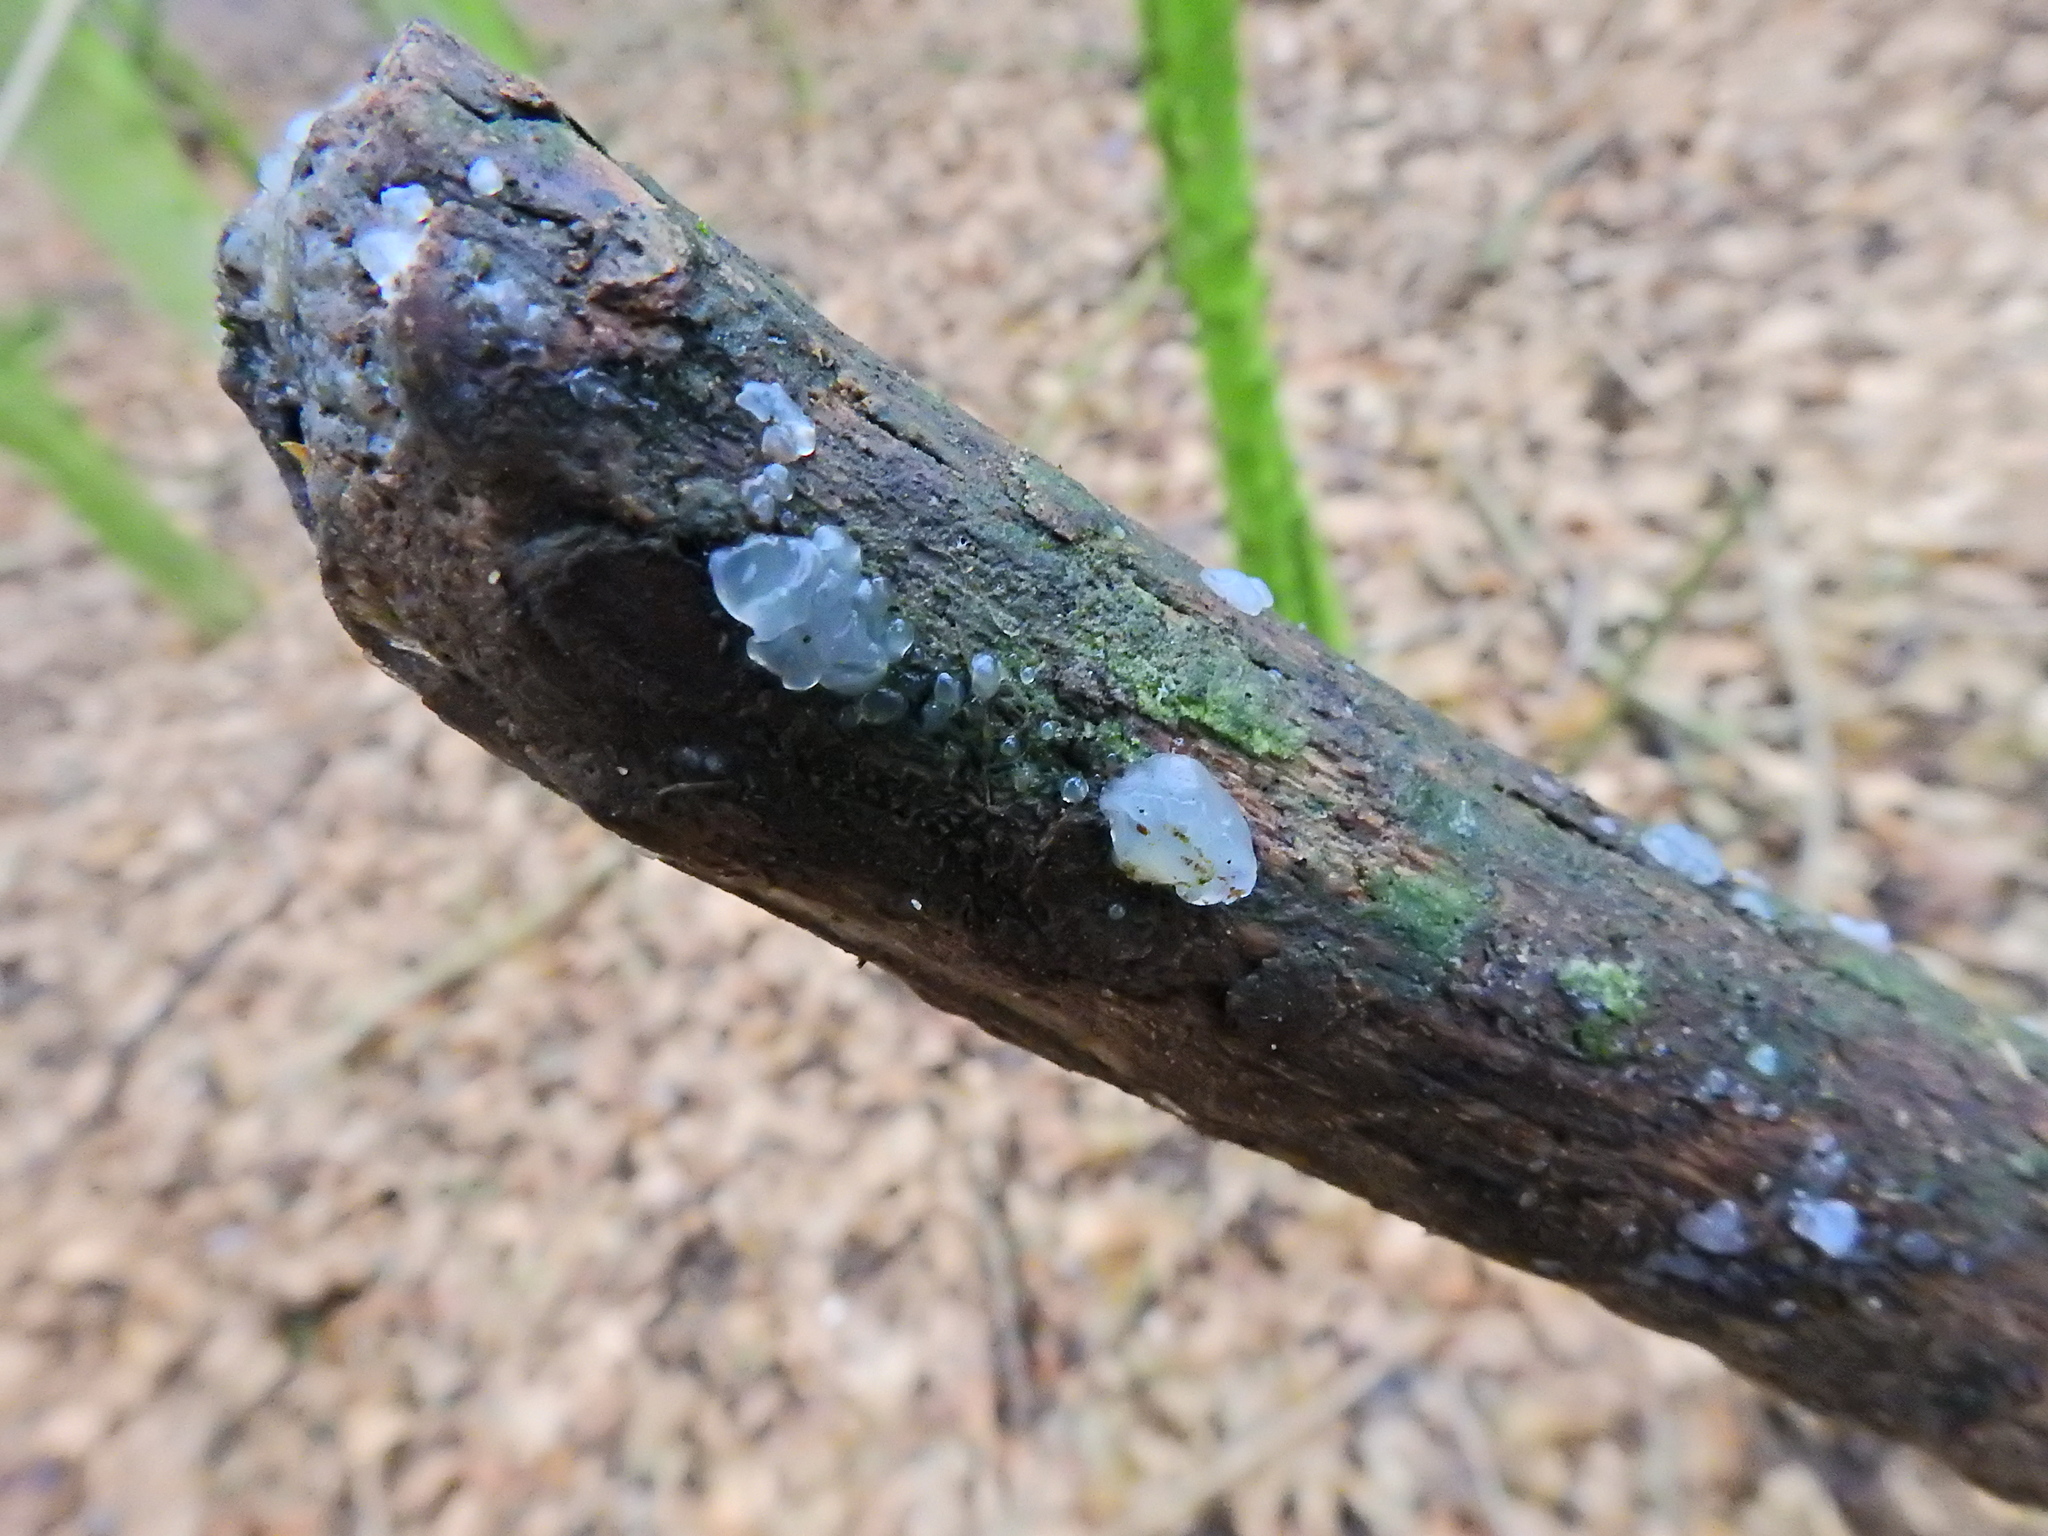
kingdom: Fungi
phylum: Basidiomycota
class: Agaricomycetes
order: Auriculariales
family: Hyaloriaceae
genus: Myxarium
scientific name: Myxarium nucleatum
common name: Crystal brain fungus
